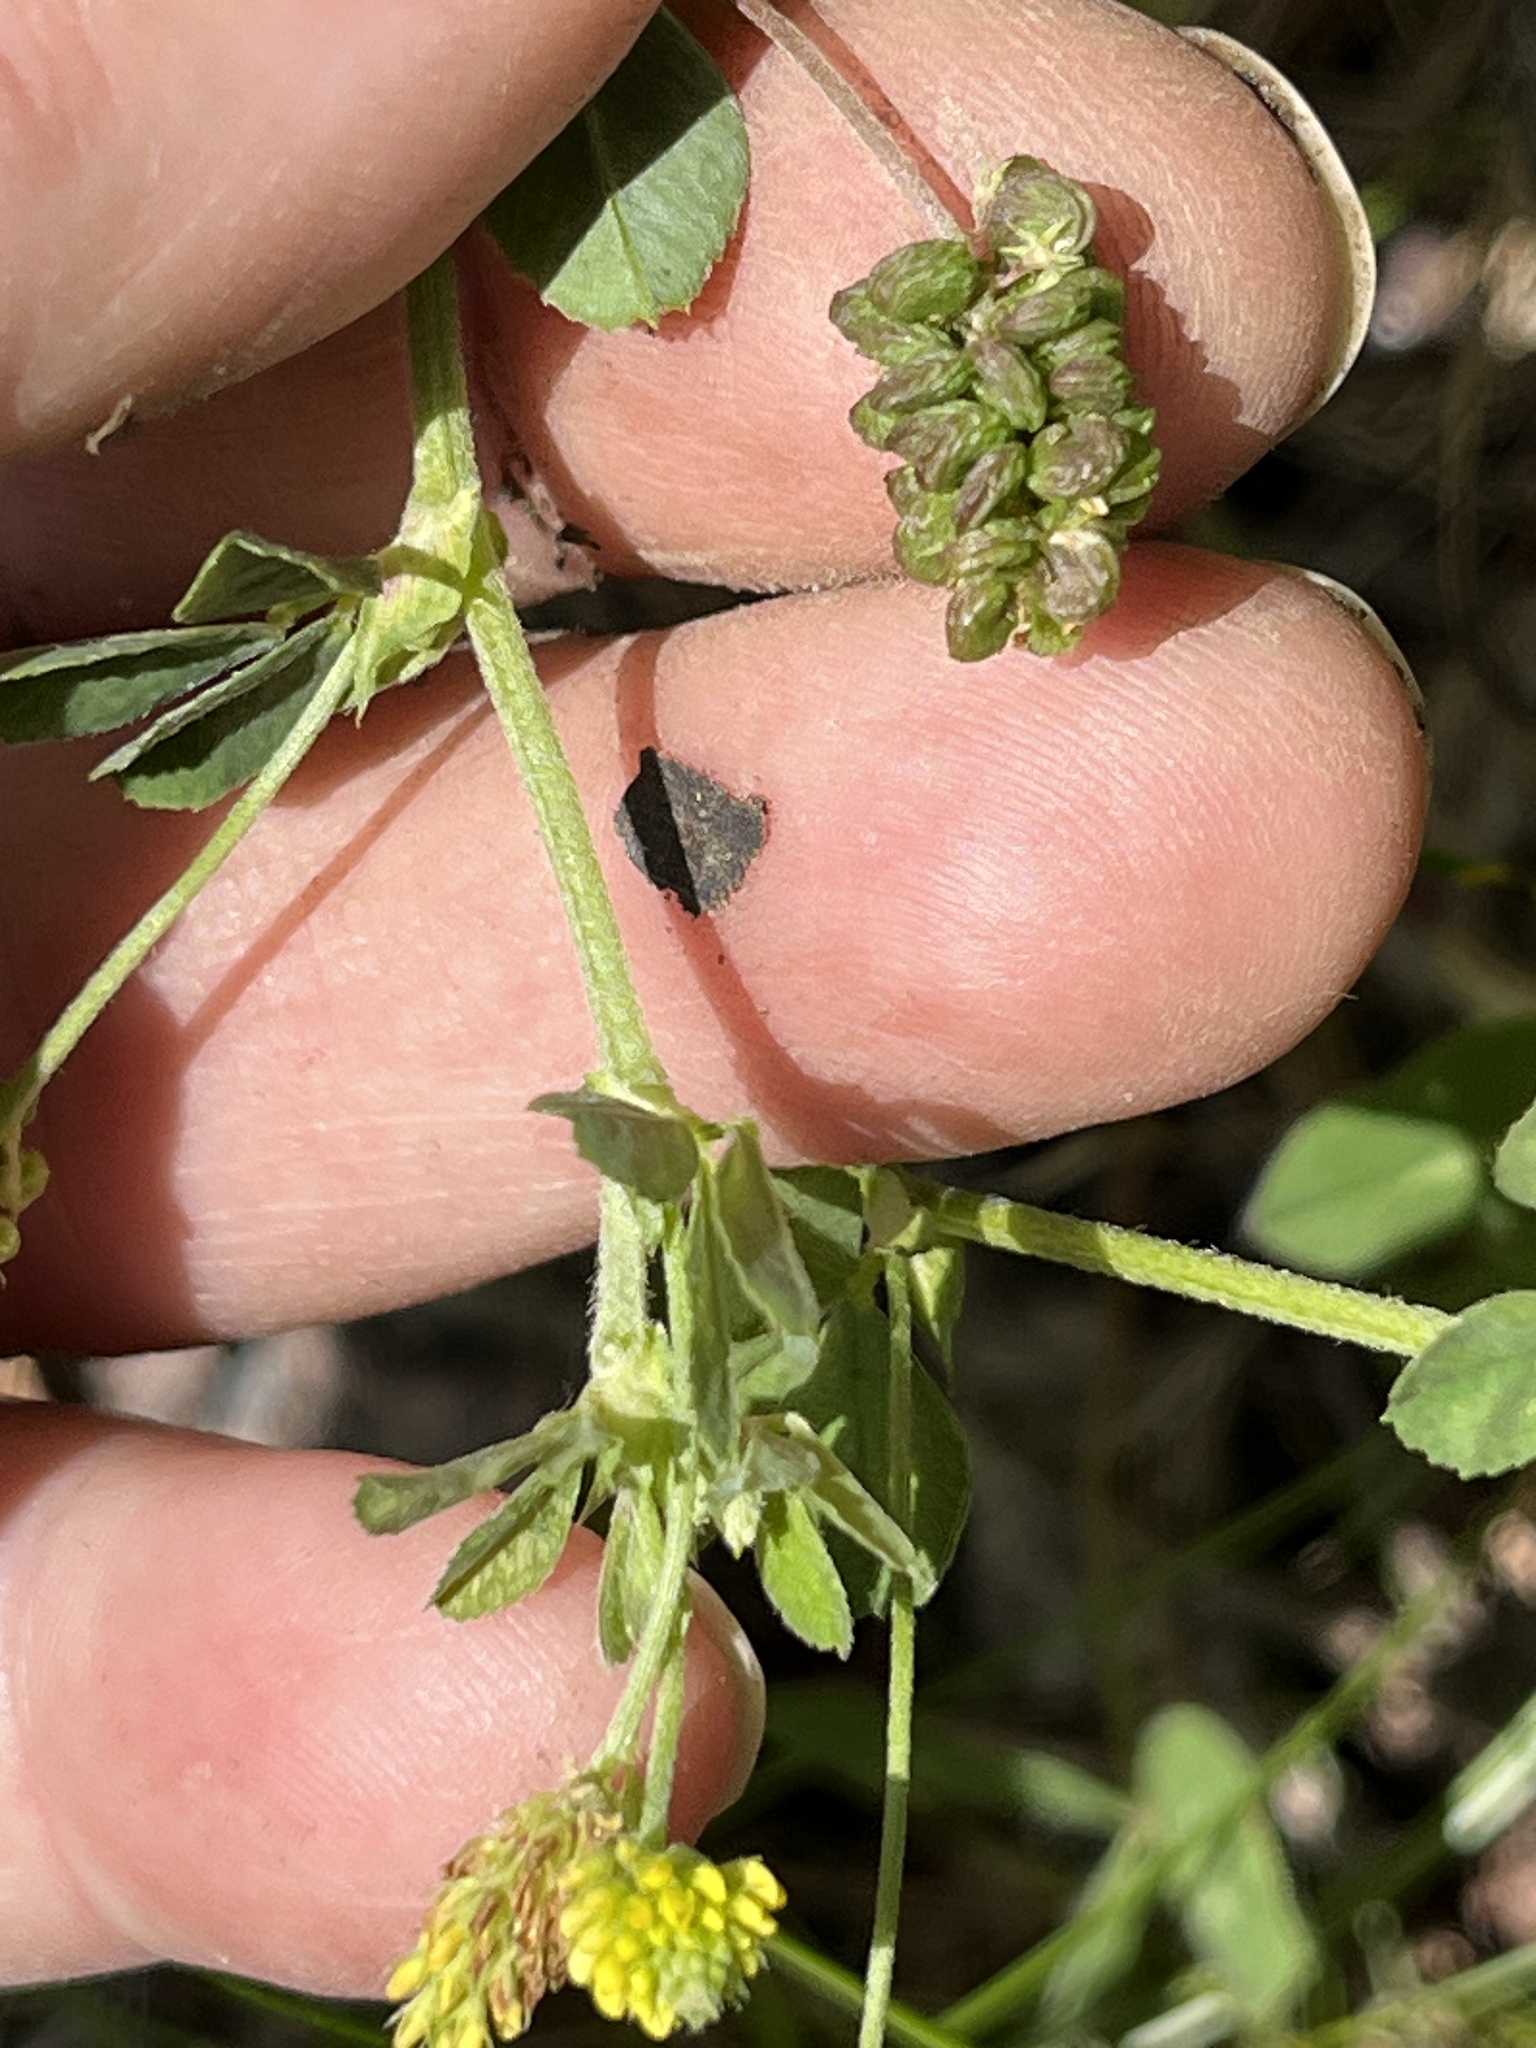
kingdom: Plantae
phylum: Tracheophyta
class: Magnoliopsida
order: Fabales
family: Fabaceae
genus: Medicago
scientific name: Medicago lupulina
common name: Black medick
